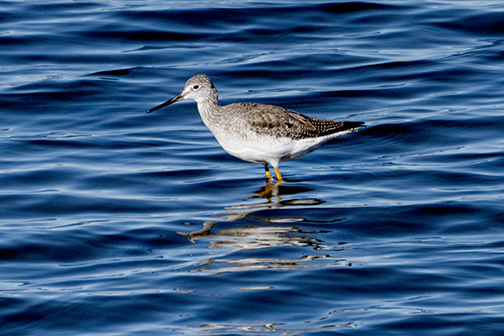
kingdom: Animalia
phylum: Chordata
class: Aves
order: Charadriiformes
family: Scolopacidae
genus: Tringa
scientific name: Tringa melanoleuca
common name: Greater yellowlegs
